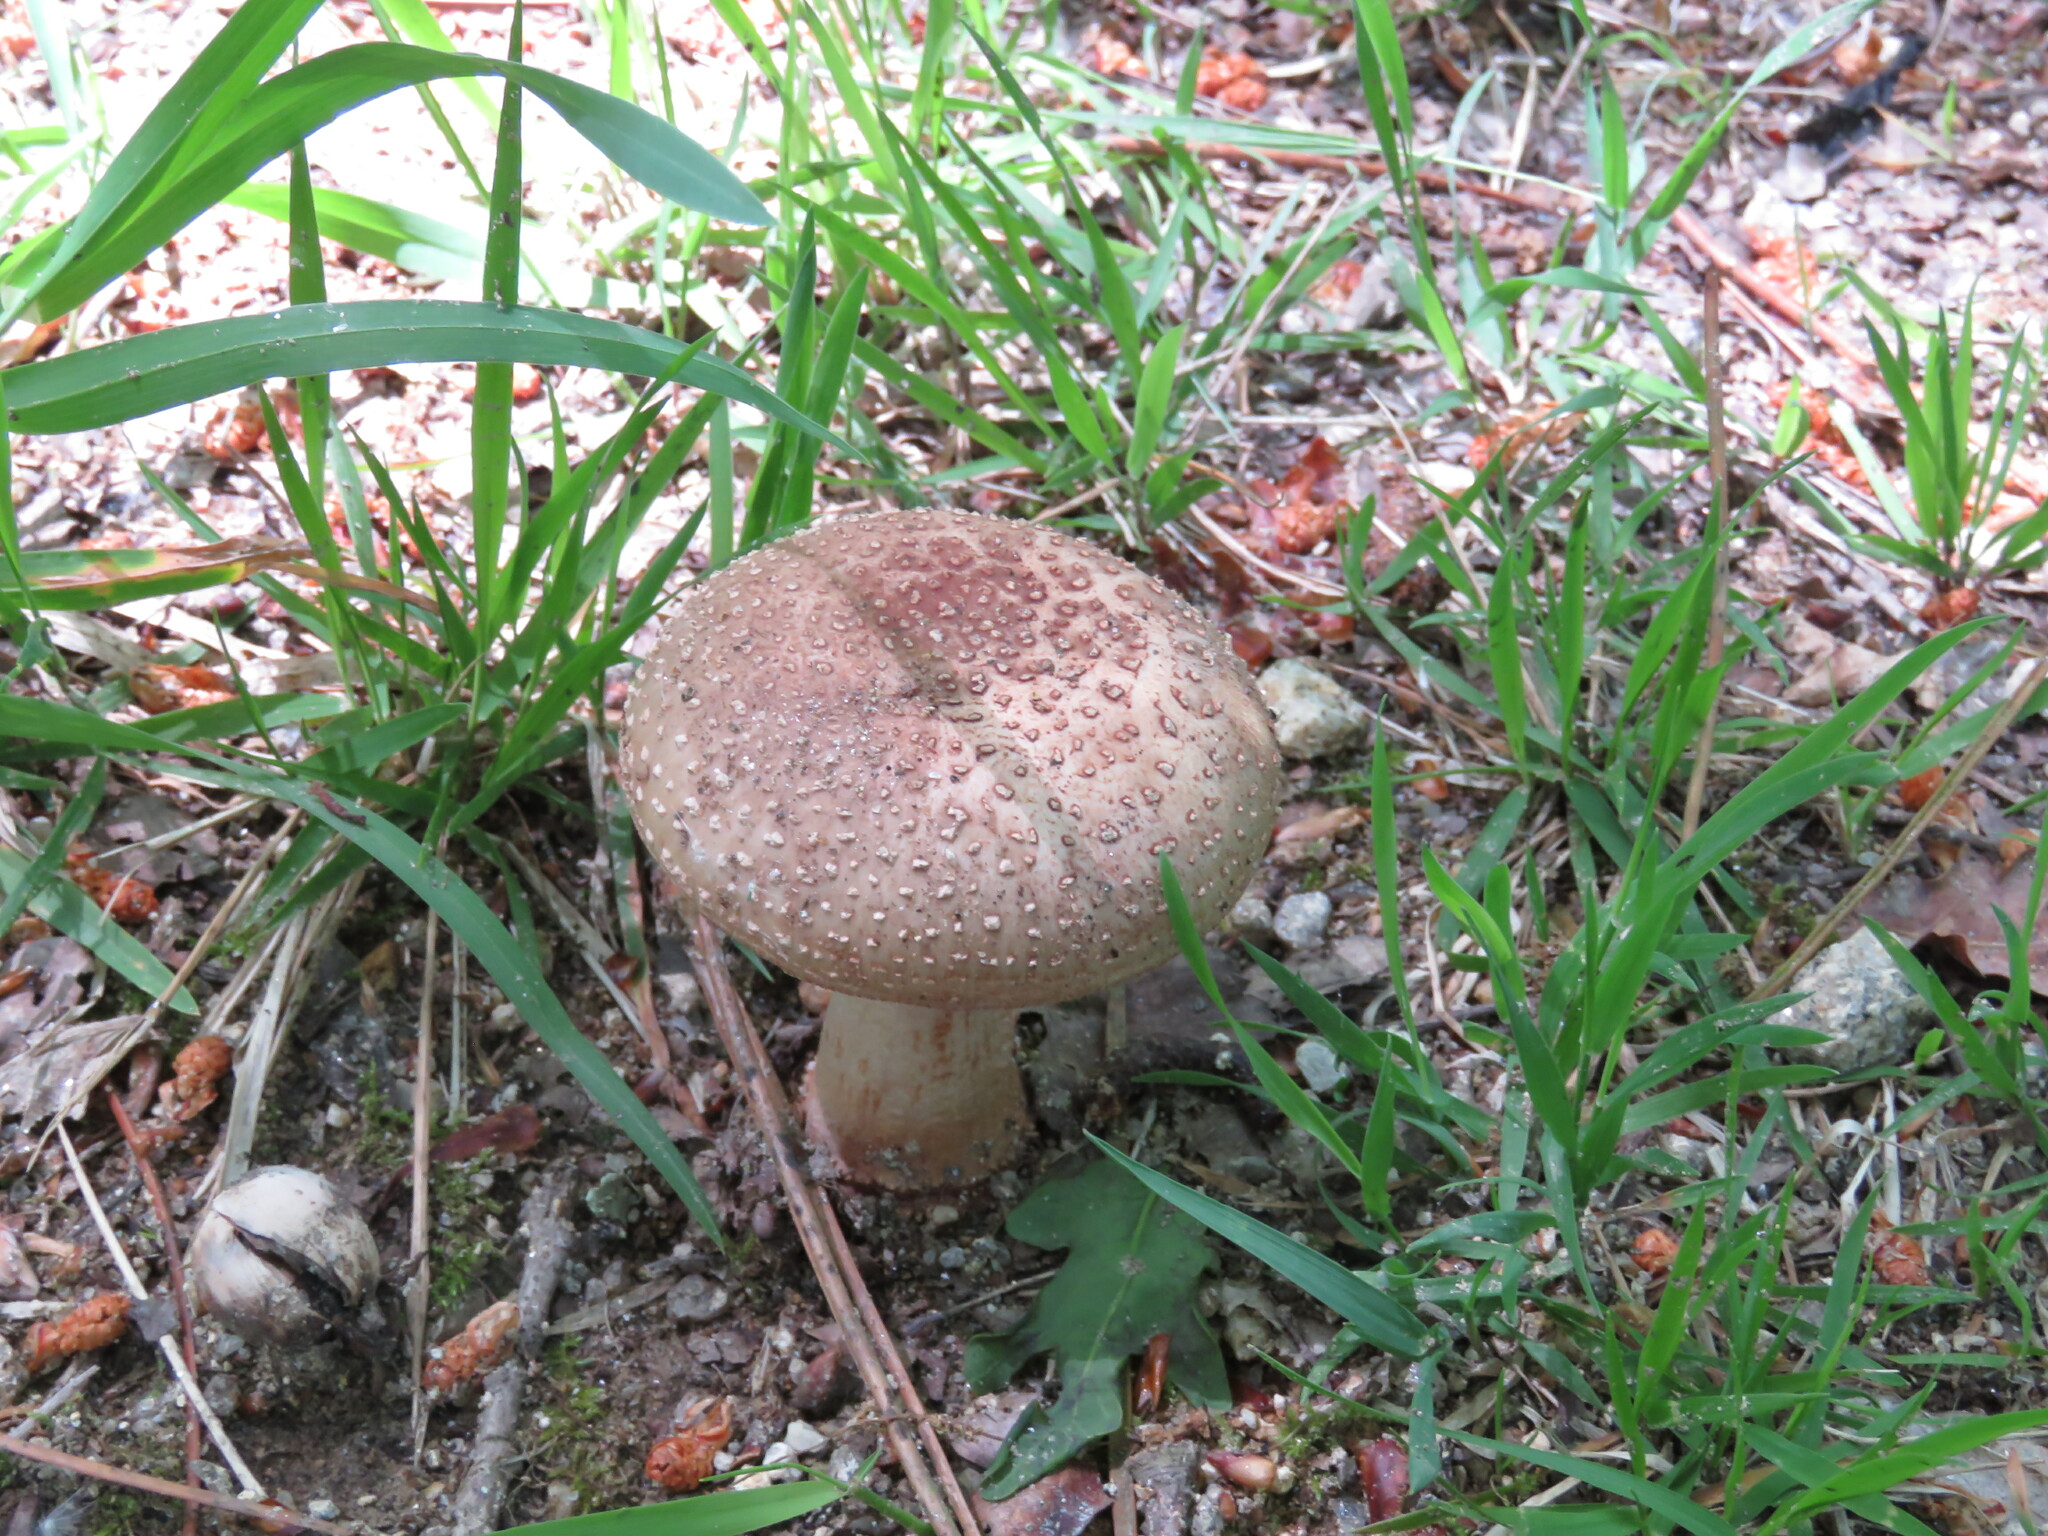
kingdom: Fungi
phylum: Basidiomycota
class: Agaricomycetes
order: Agaricales
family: Amanitaceae
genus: Amanita
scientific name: Amanita rubescens
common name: Blusher
